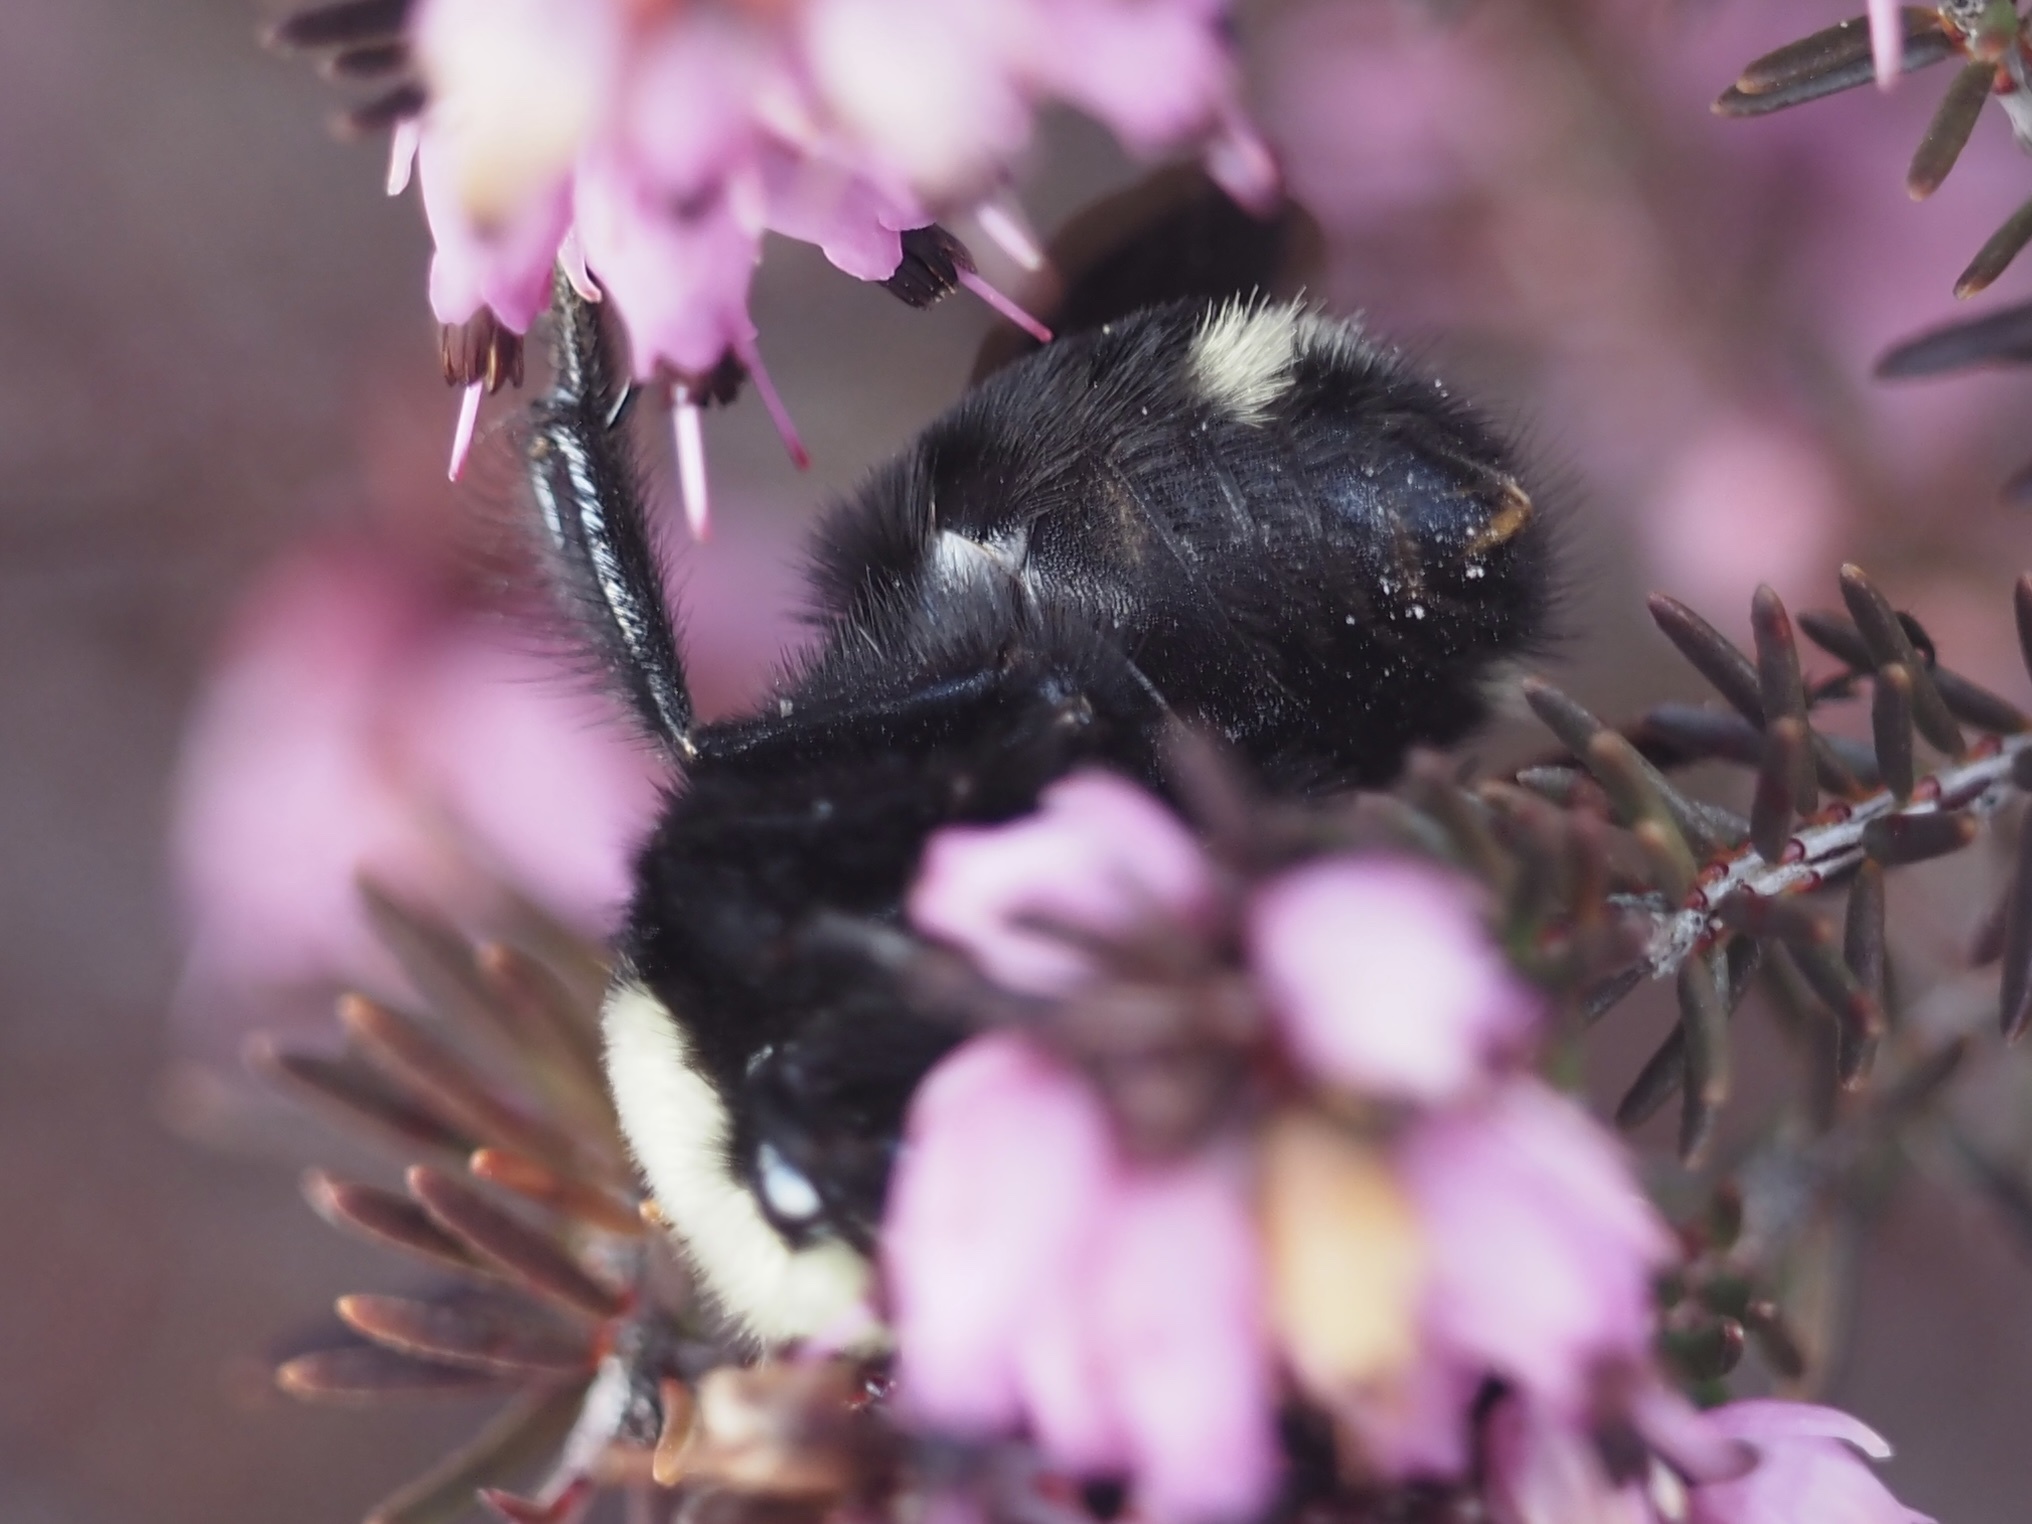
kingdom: Animalia
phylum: Arthropoda
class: Insecta
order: Hymenoptera
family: Apidae
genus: Bombus
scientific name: Bombus vosnesenskii
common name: Vosnesensky bumble bee
